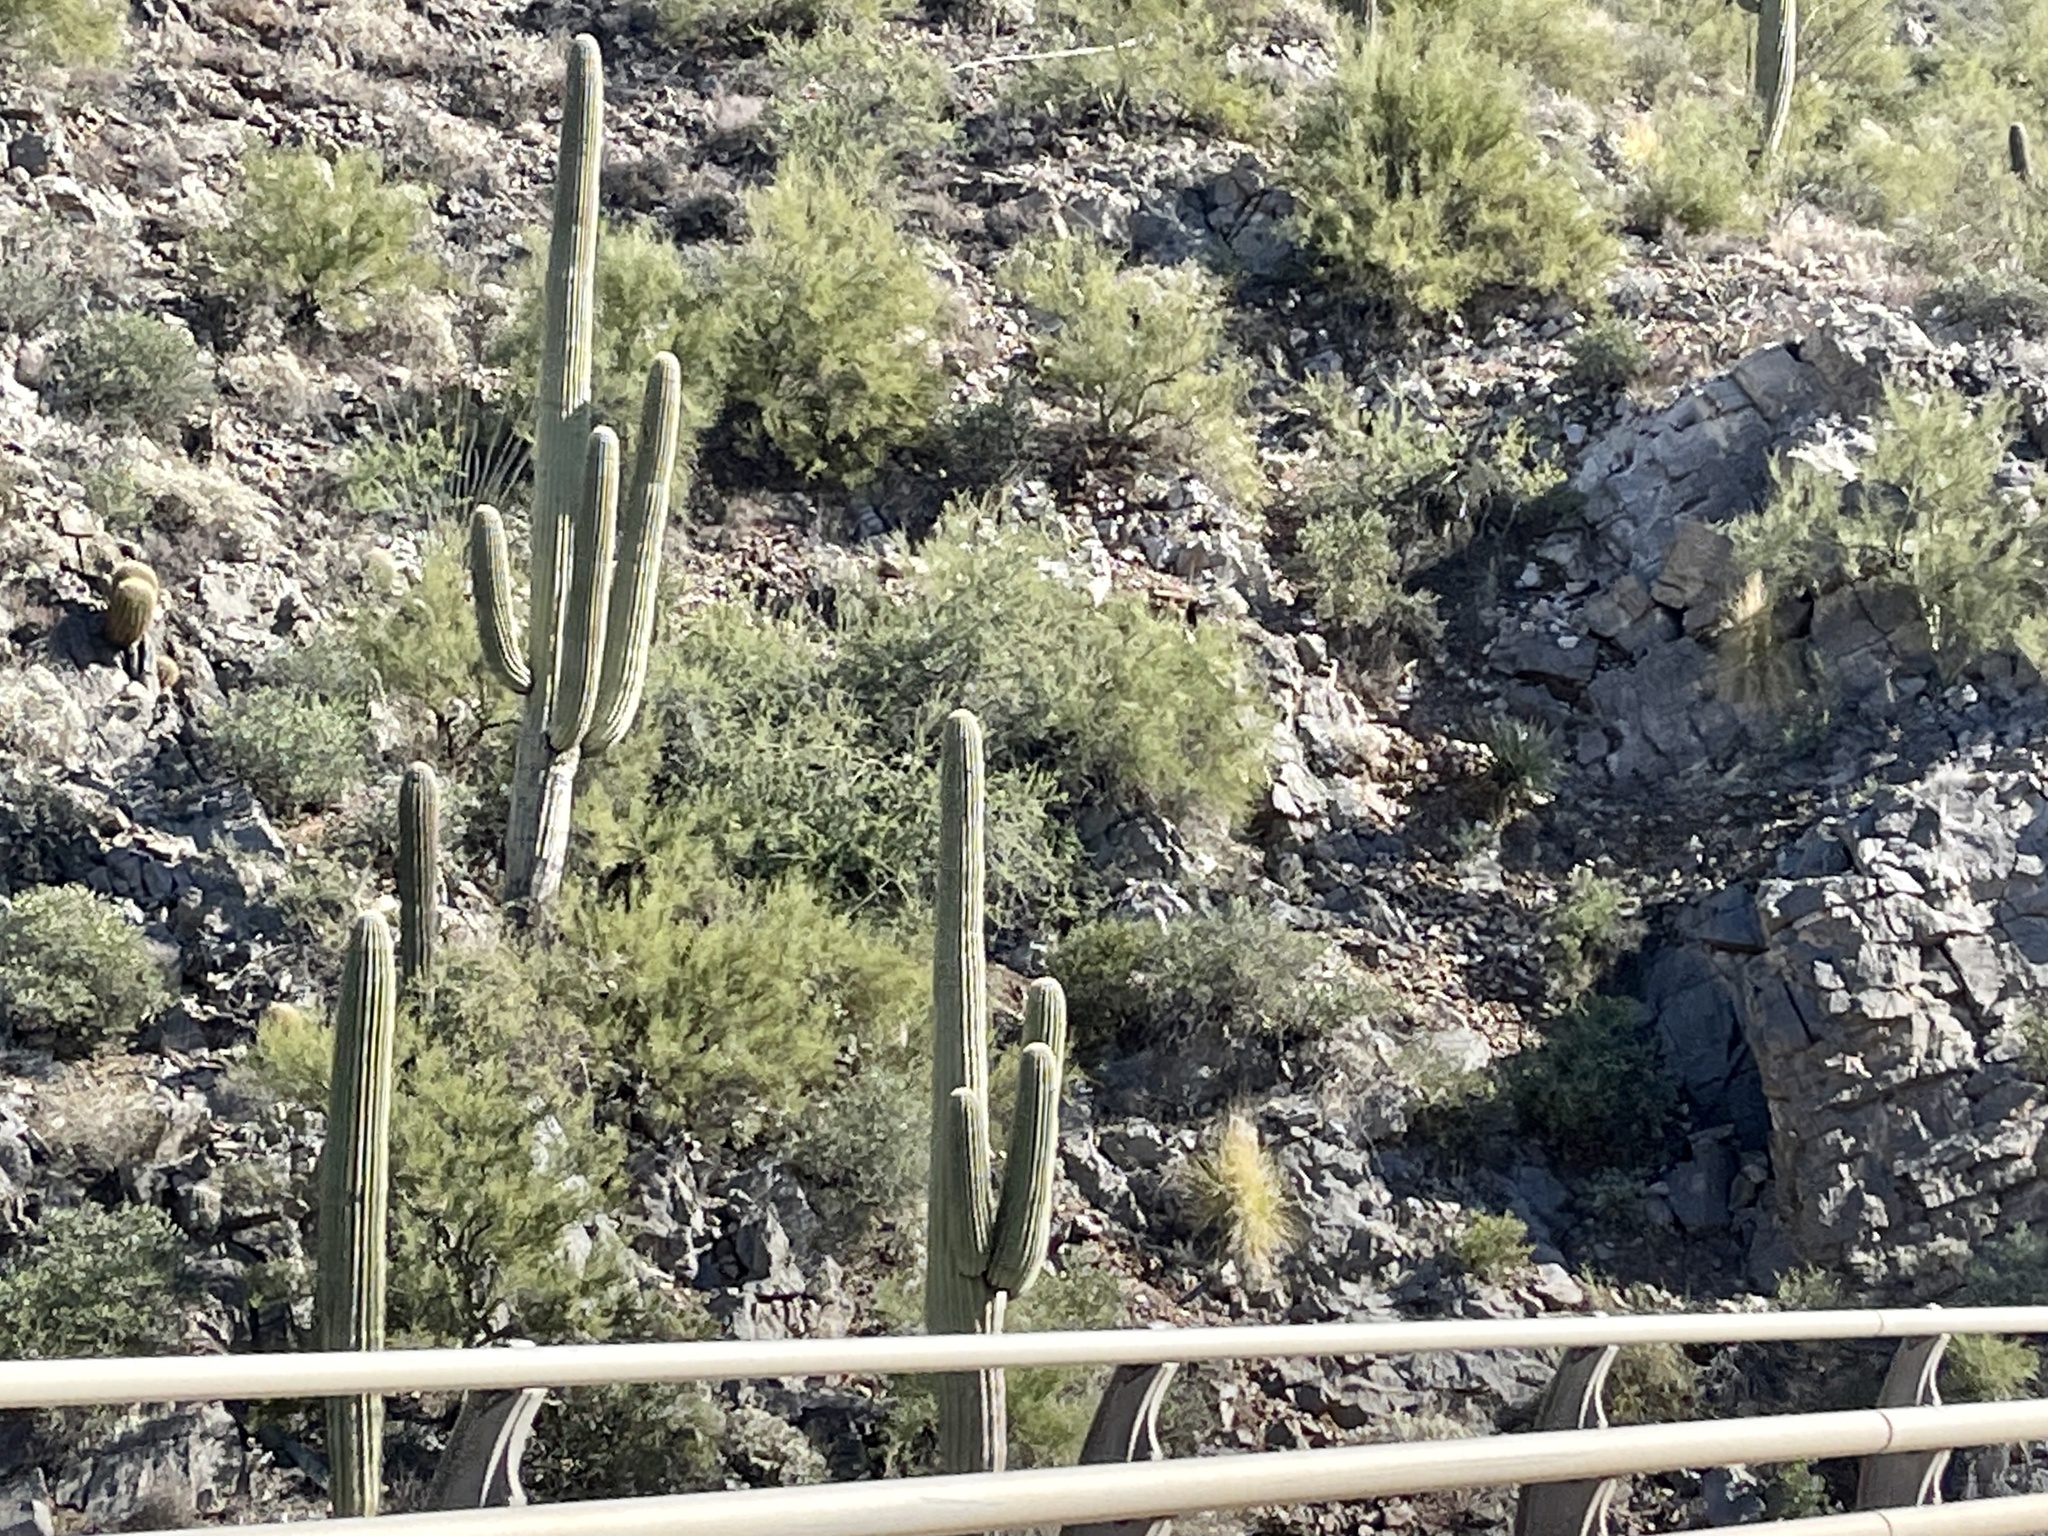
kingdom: Plantae
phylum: Tracheophyta
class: Magnoliopsida
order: Caryophyllales
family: Cactaceae
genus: Carnegiea
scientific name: Carnegiea gigantea
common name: Saguaro
